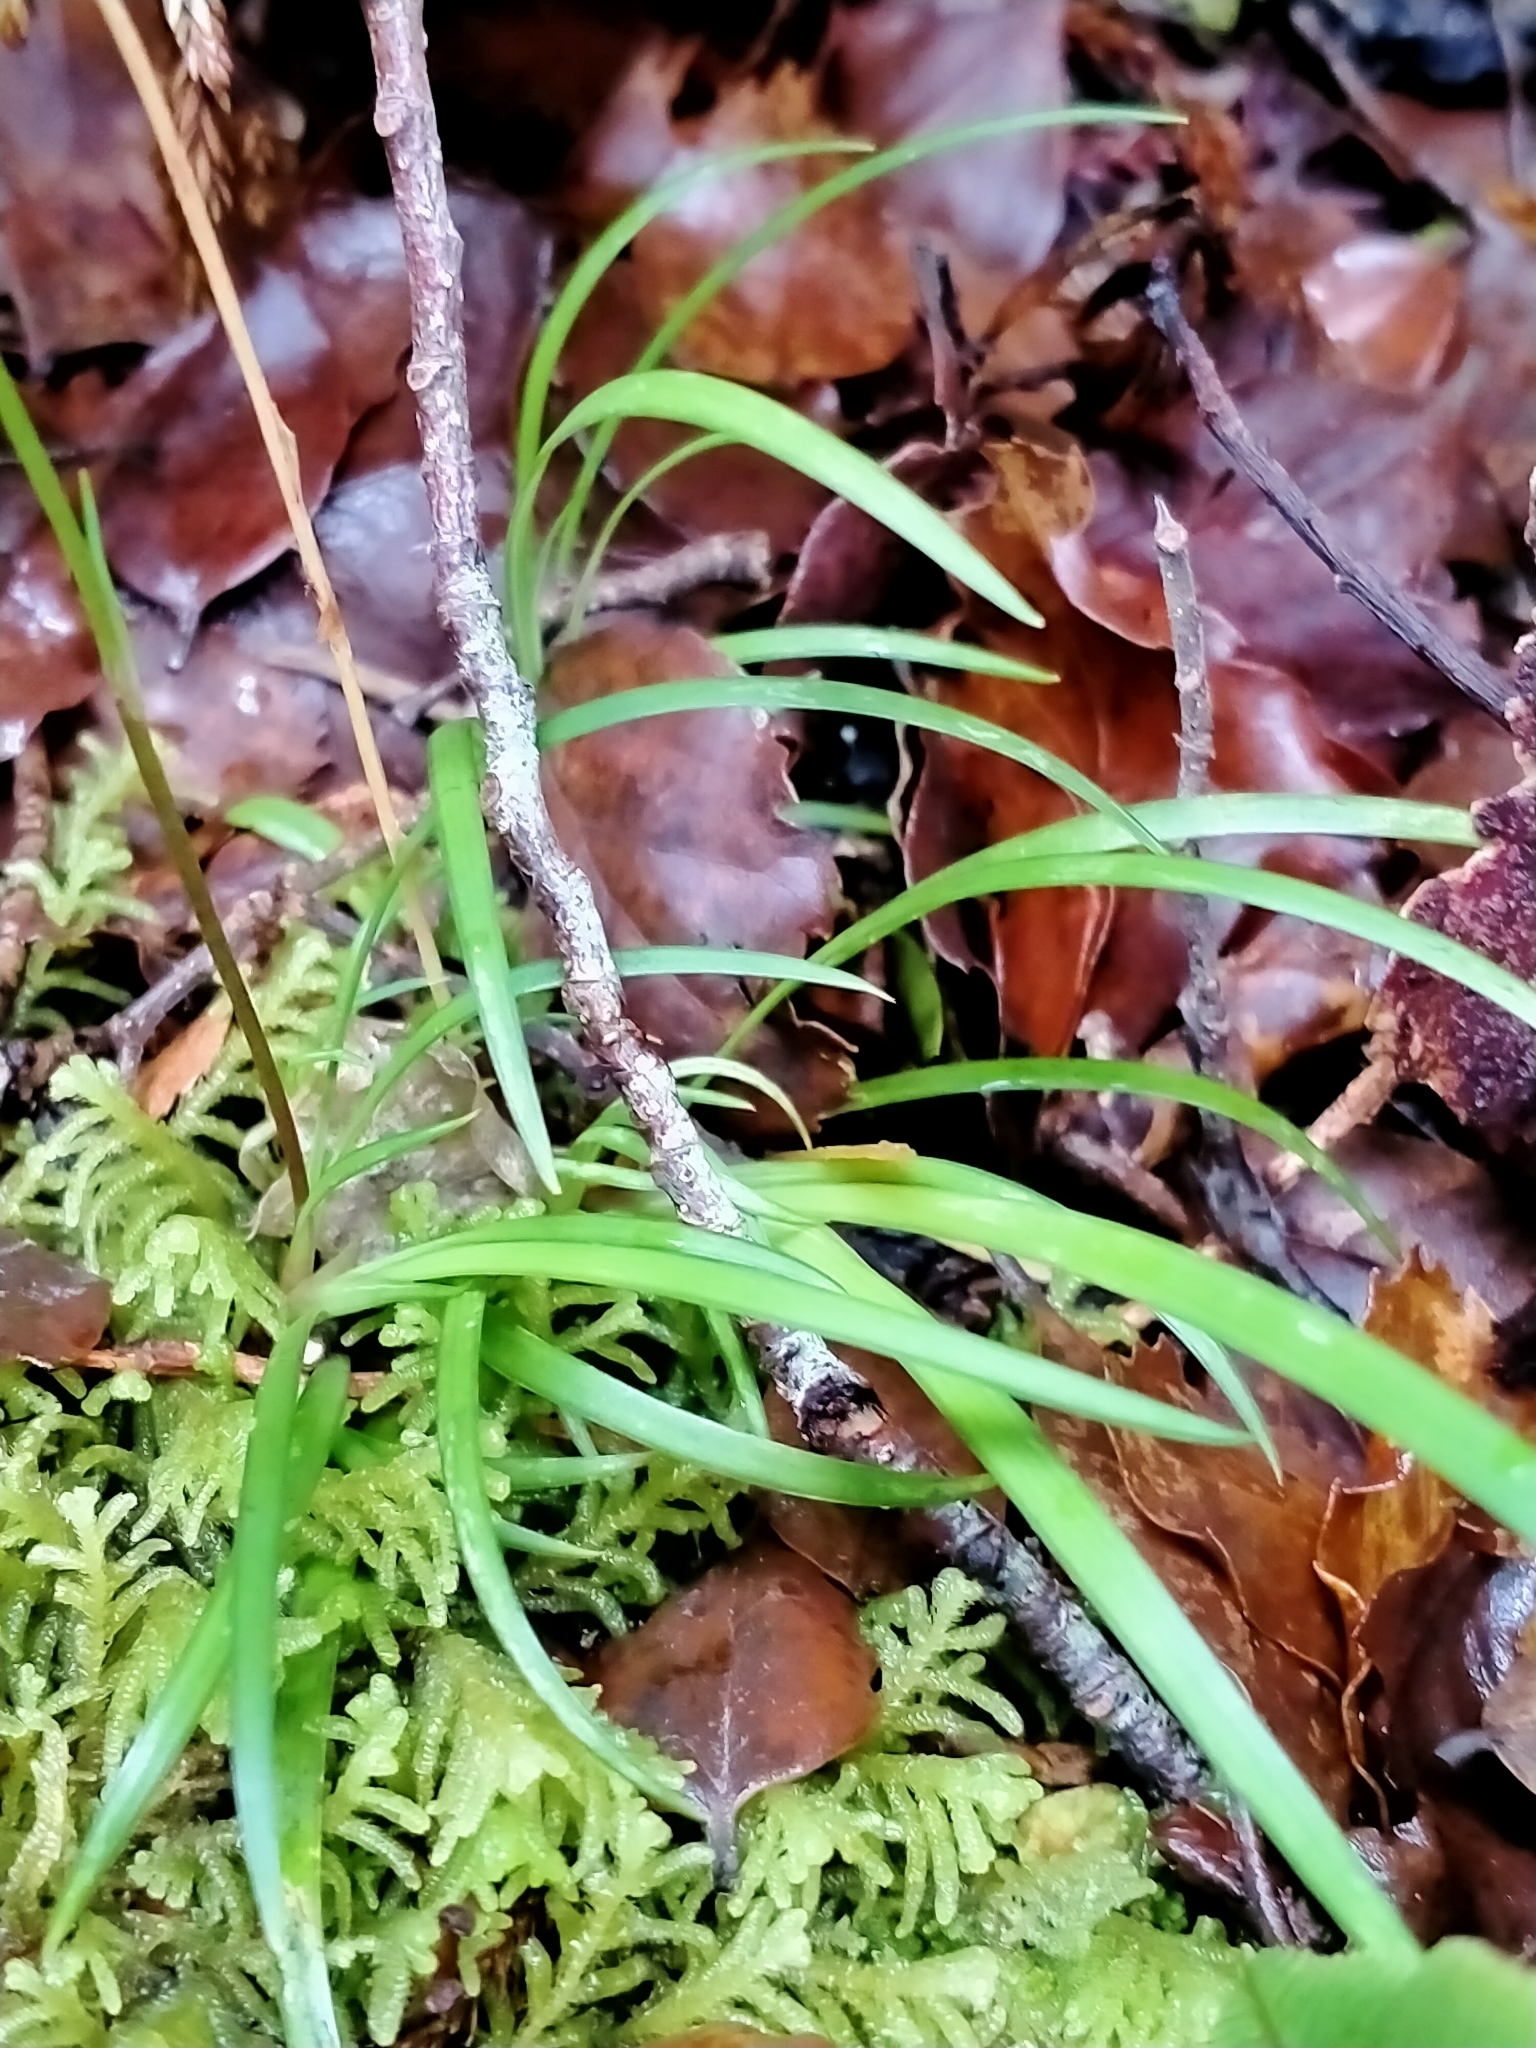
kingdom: Plantae
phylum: Tracheophyta
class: Liliopsida
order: Asparagales
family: Iridaceae
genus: Libertia
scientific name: Libertia micrantha
